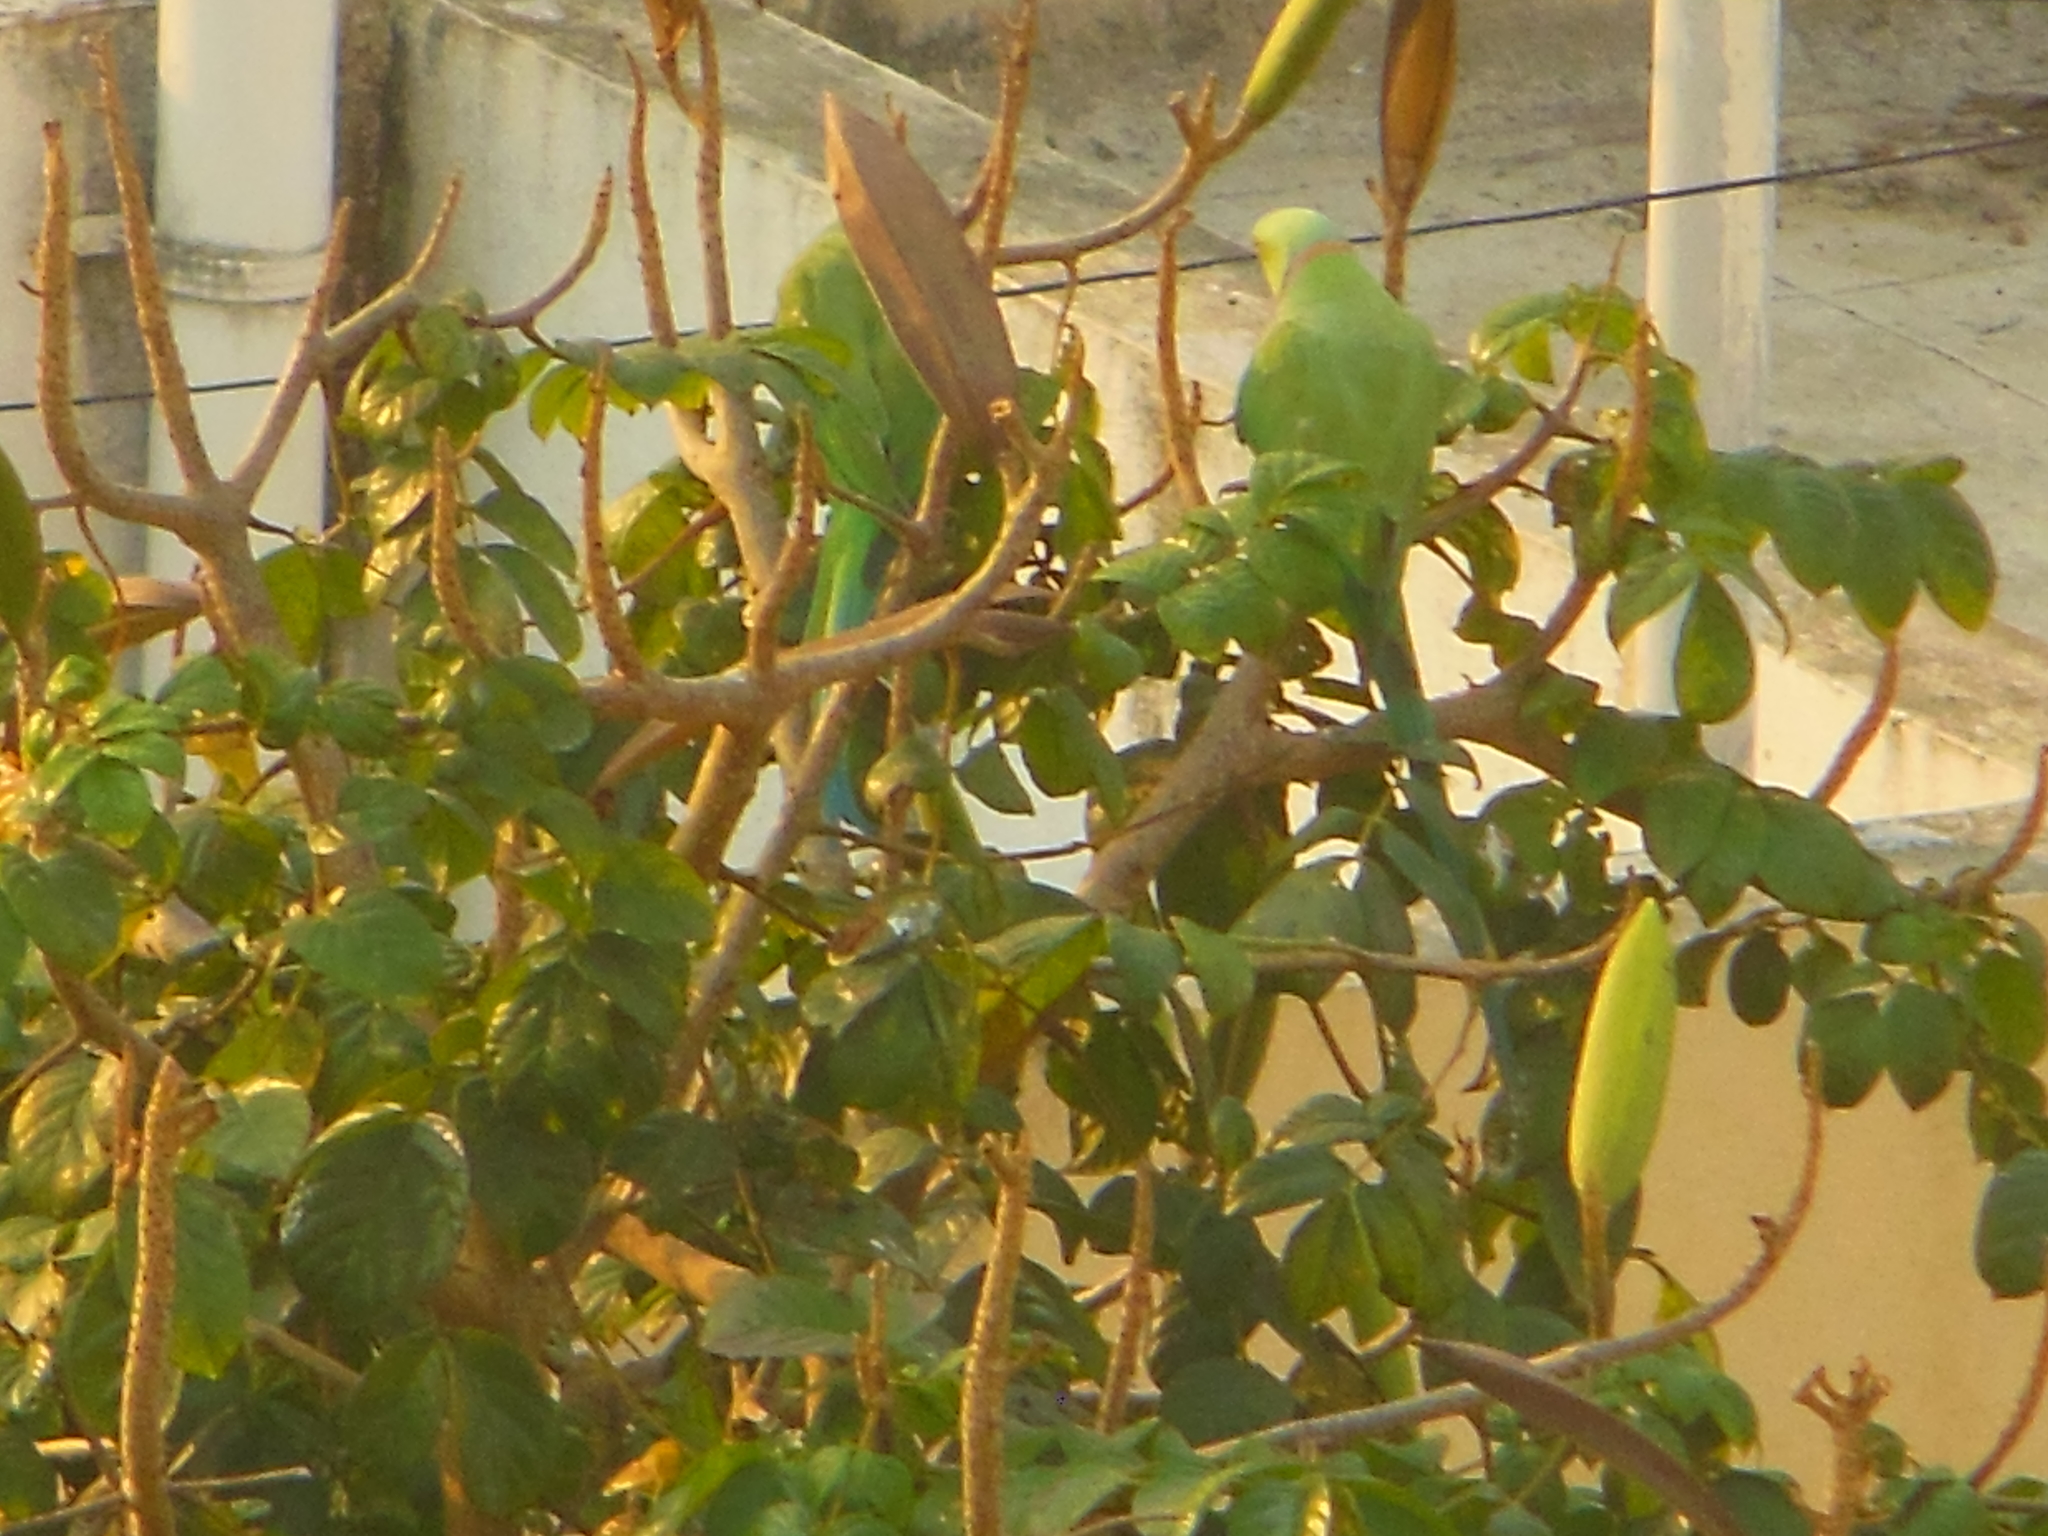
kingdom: Animalia
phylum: Chordata
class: Aves
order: Psittaciformes
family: Psittacidae
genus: Psittacula
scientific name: Psittacula krameri
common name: Rose-ringed parakeet
